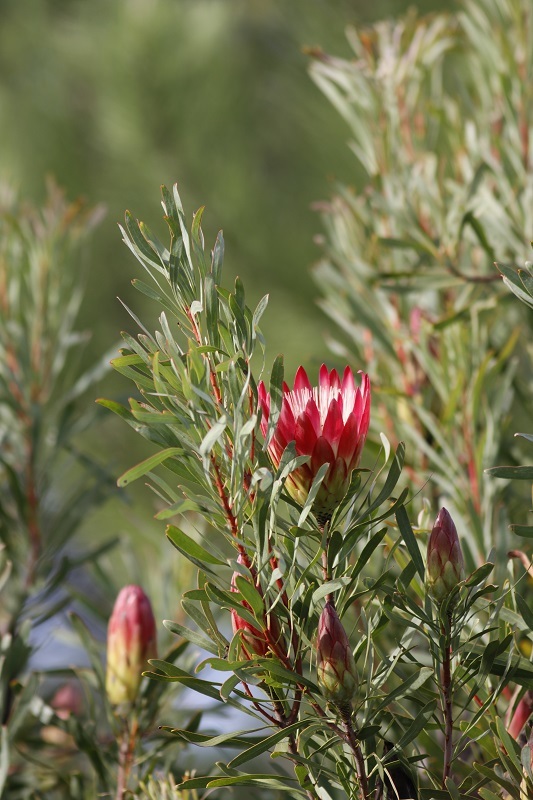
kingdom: Plantae
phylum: Tracheophyta
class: Magnoliopsida
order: Proteales
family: Proteaceae
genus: Protea
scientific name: Protea repens
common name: Sugarbush
